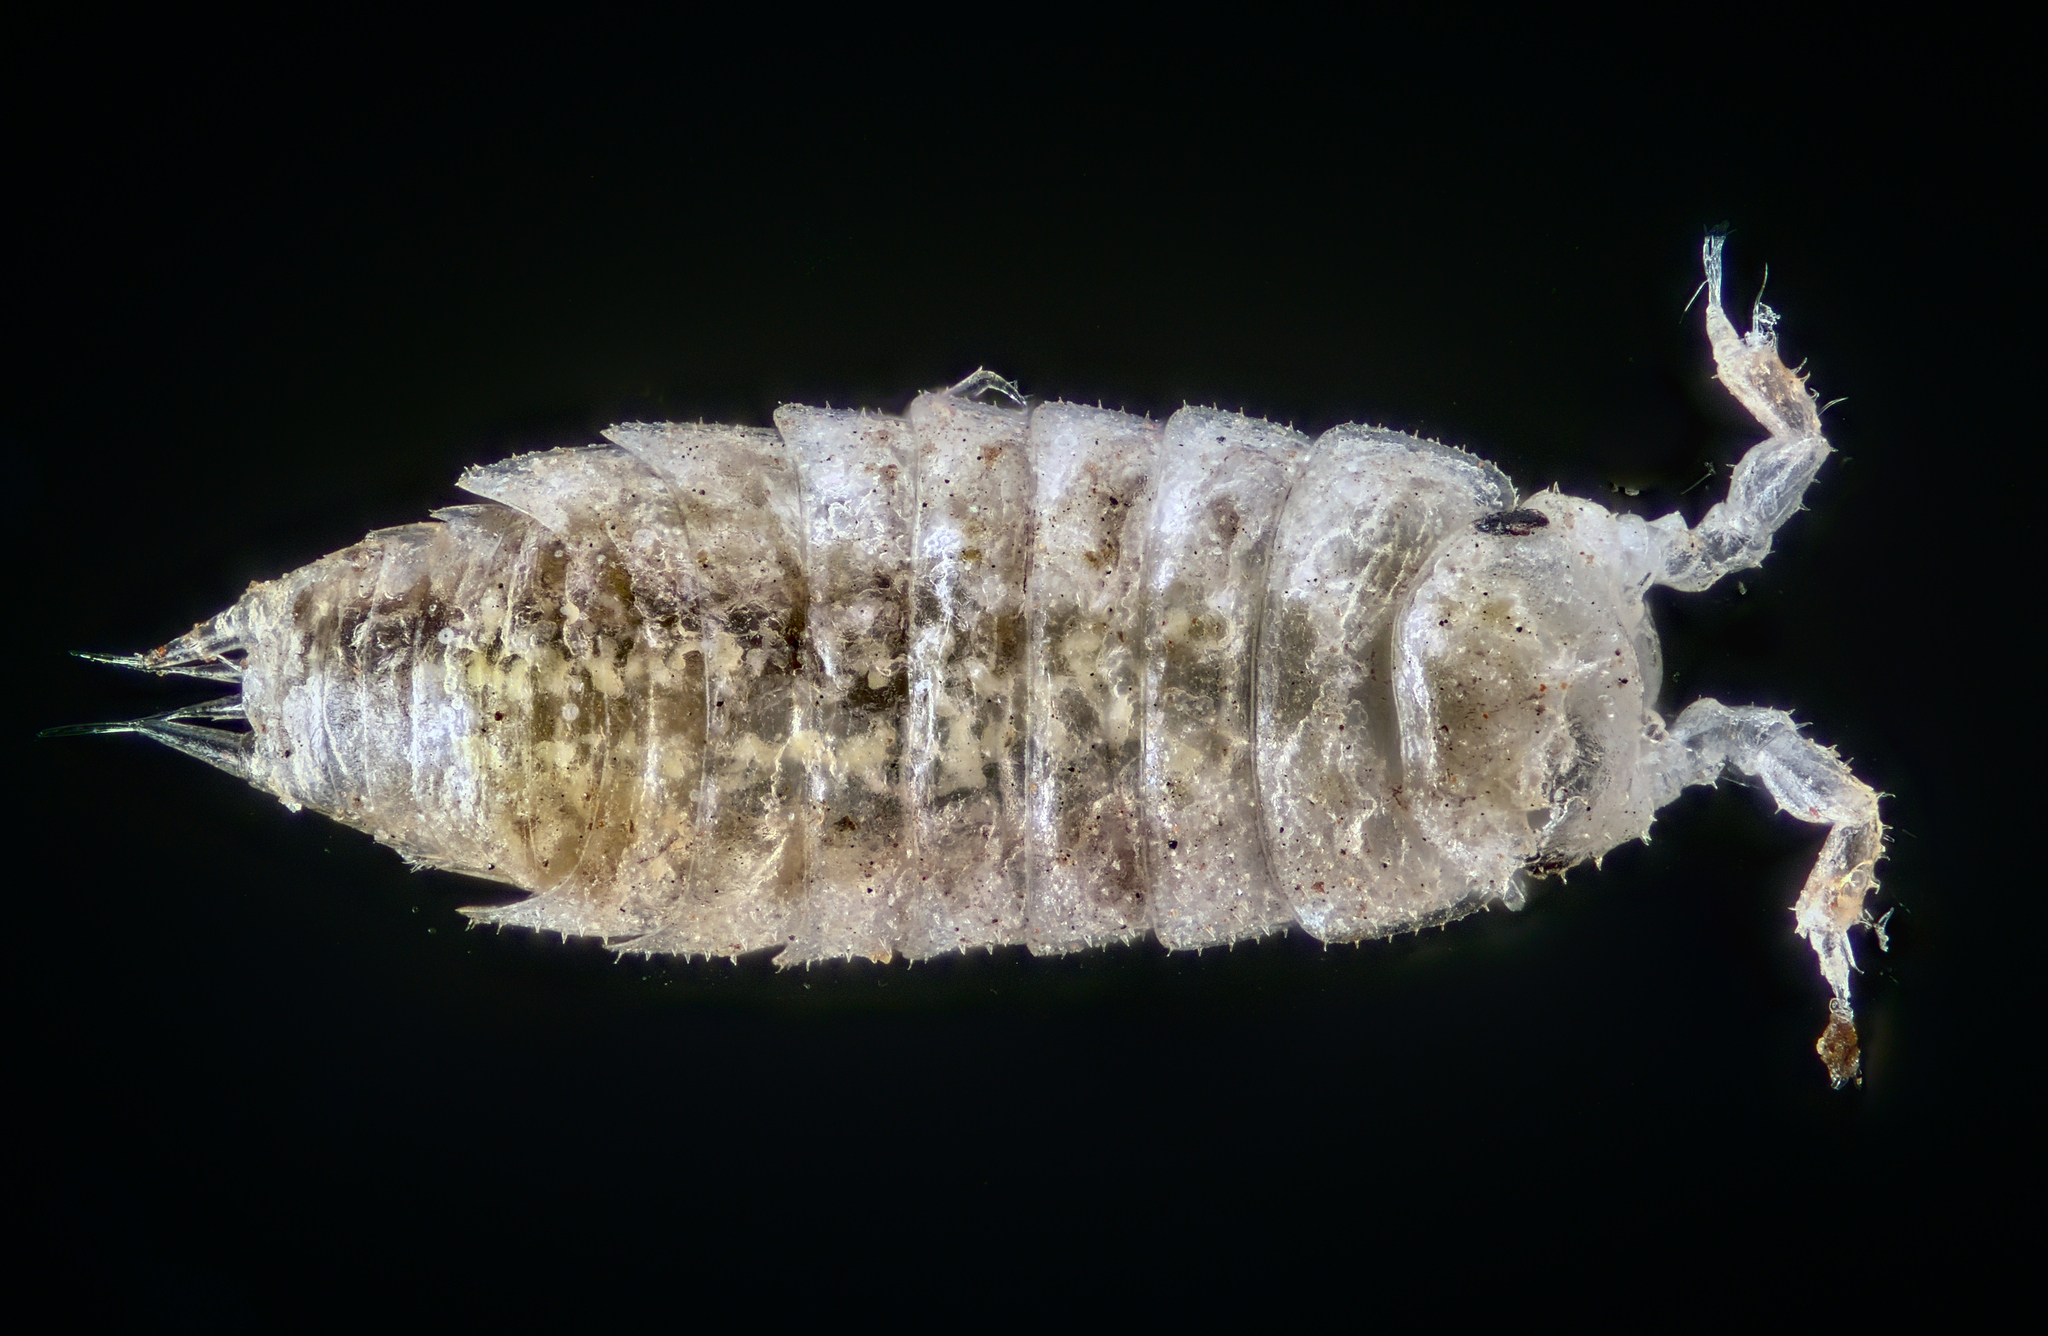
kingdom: Animalia
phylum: Arthropoda
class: Malacostraca
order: Isopoda
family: Trichoniscidae
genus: Trichoniscus
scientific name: Trichoniscus pygmaeus
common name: Isopod
